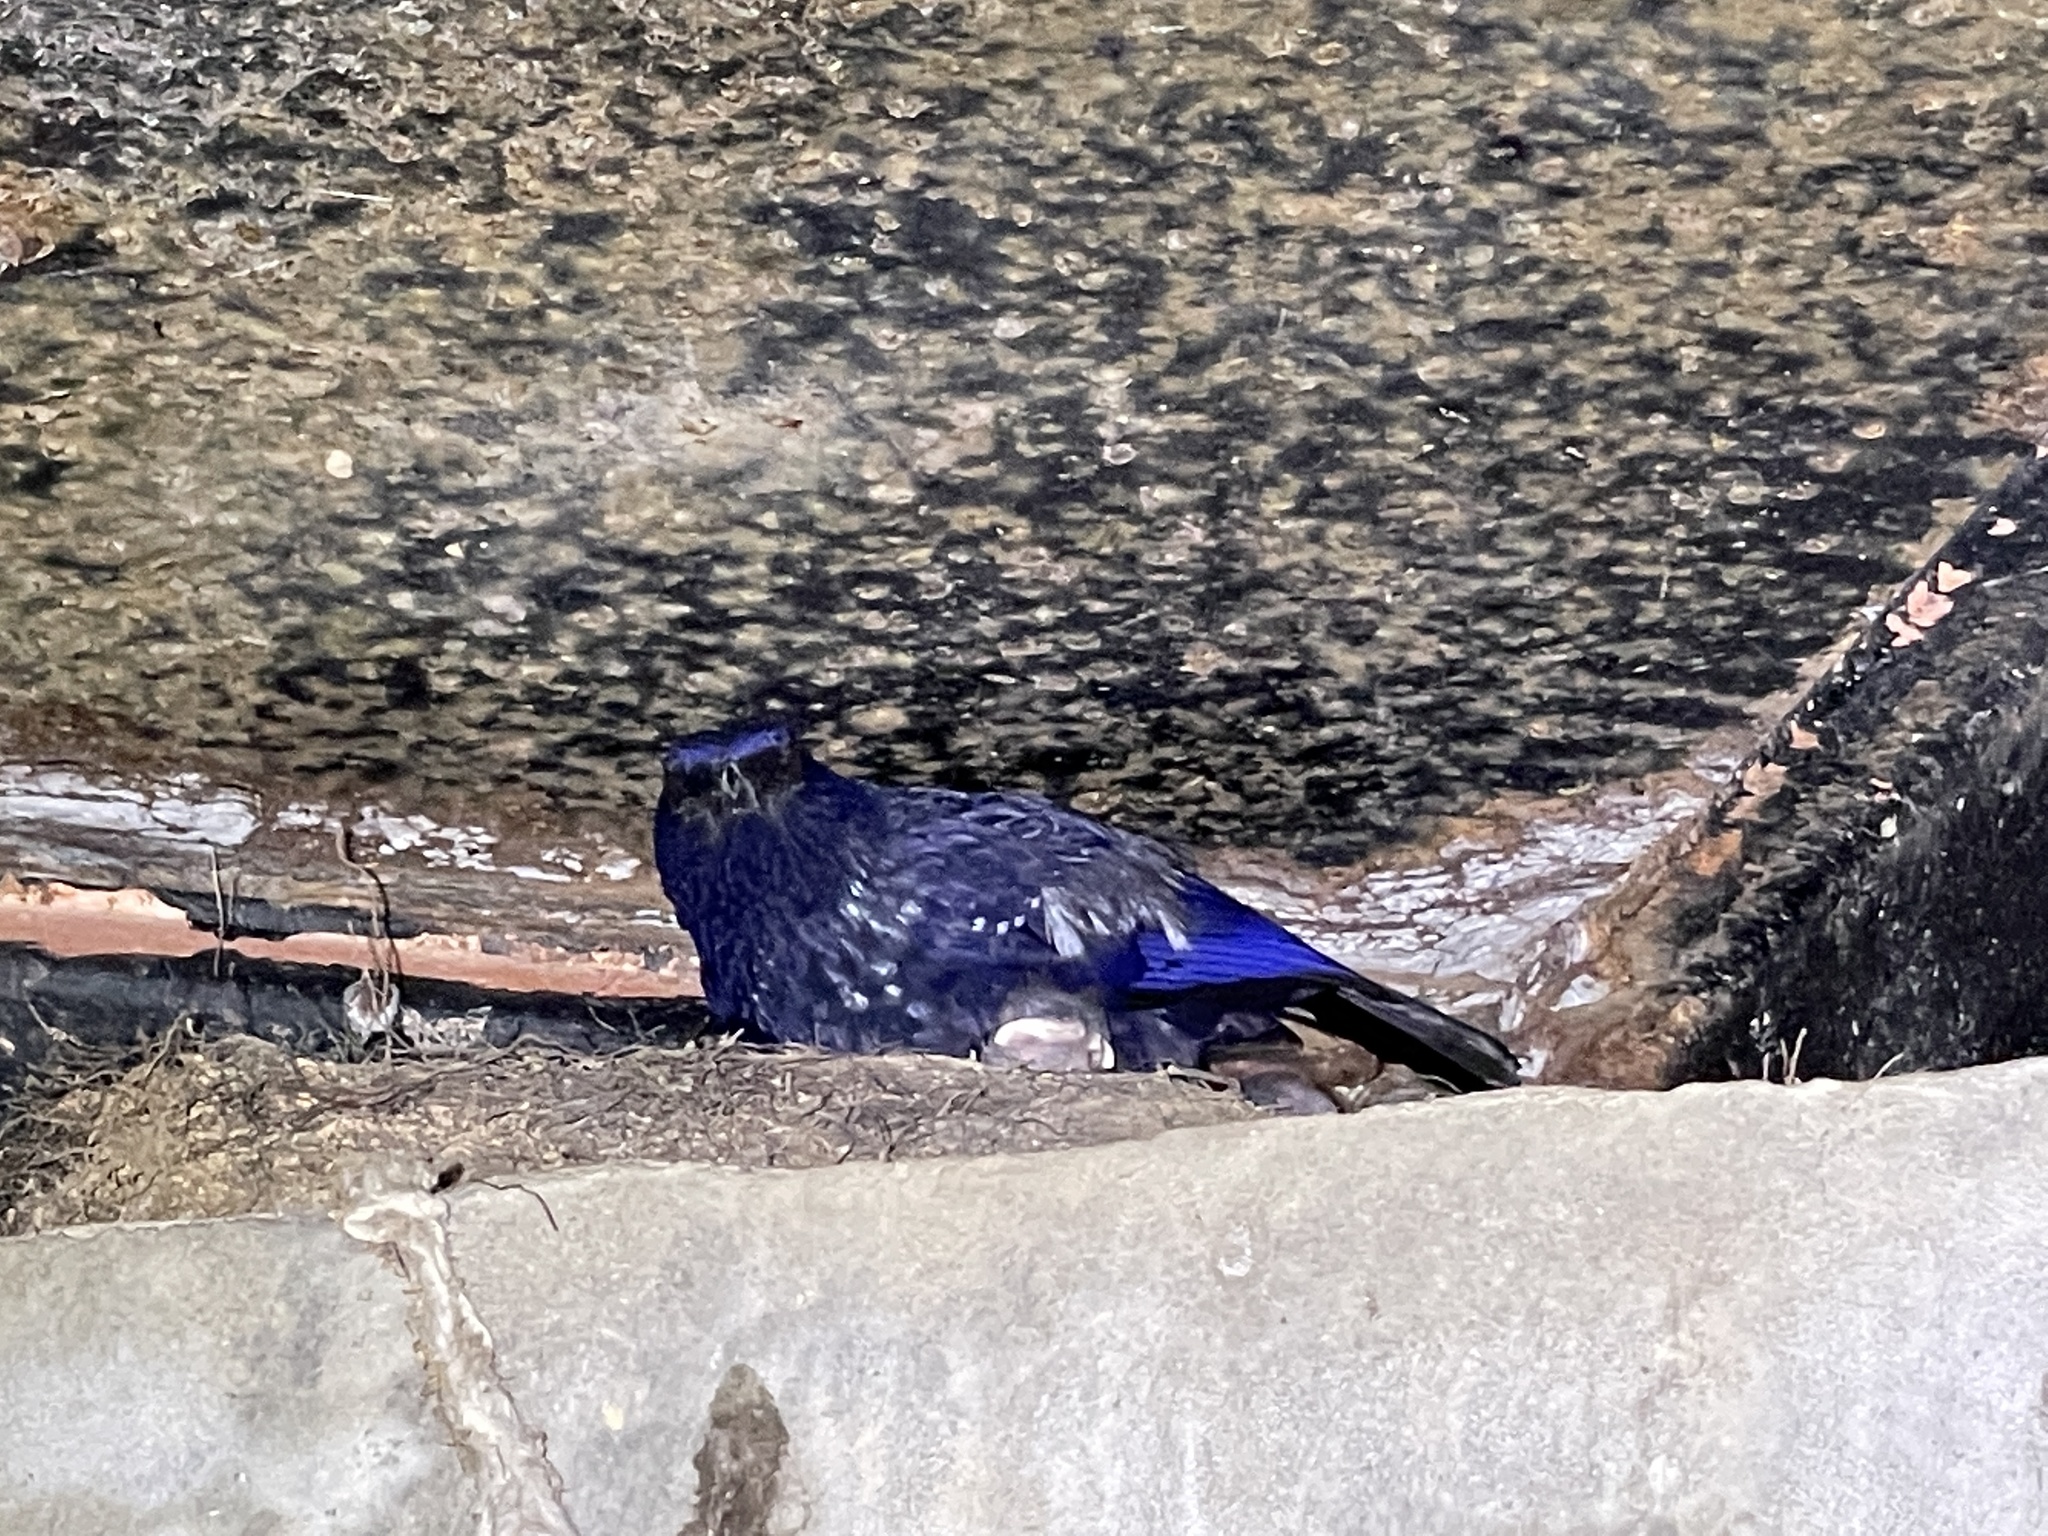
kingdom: Animalia
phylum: Chordata
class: Aves
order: Passeriformes
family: Muscicapidae
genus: Myophonus
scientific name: Myophonus caeruleus
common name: Blue whistling-thrush
